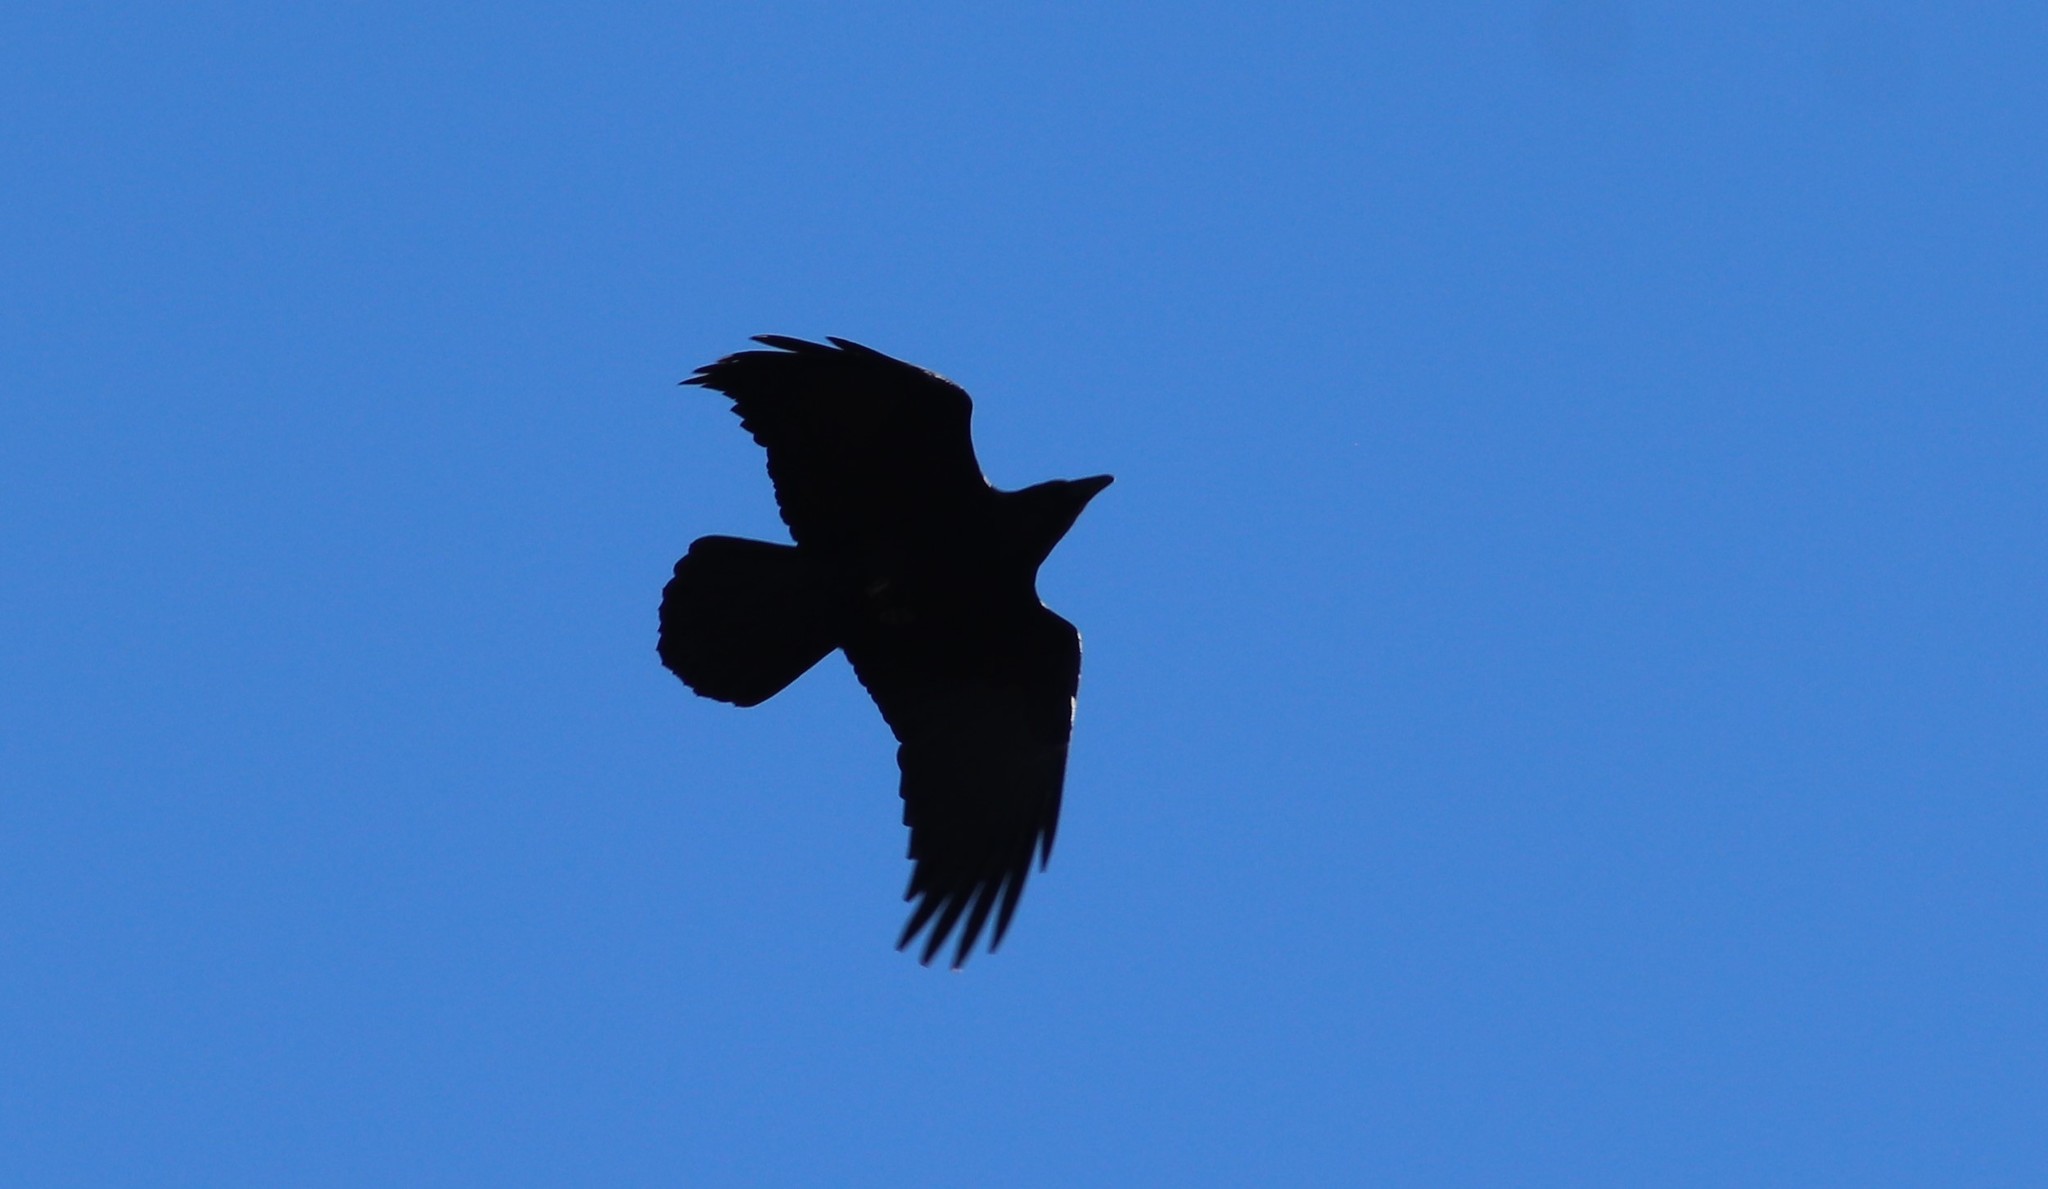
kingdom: Animalia
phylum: Chordata
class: Aves
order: Passeriformes
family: Corvidae
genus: Corvus
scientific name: Corvus corax
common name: Common raven
